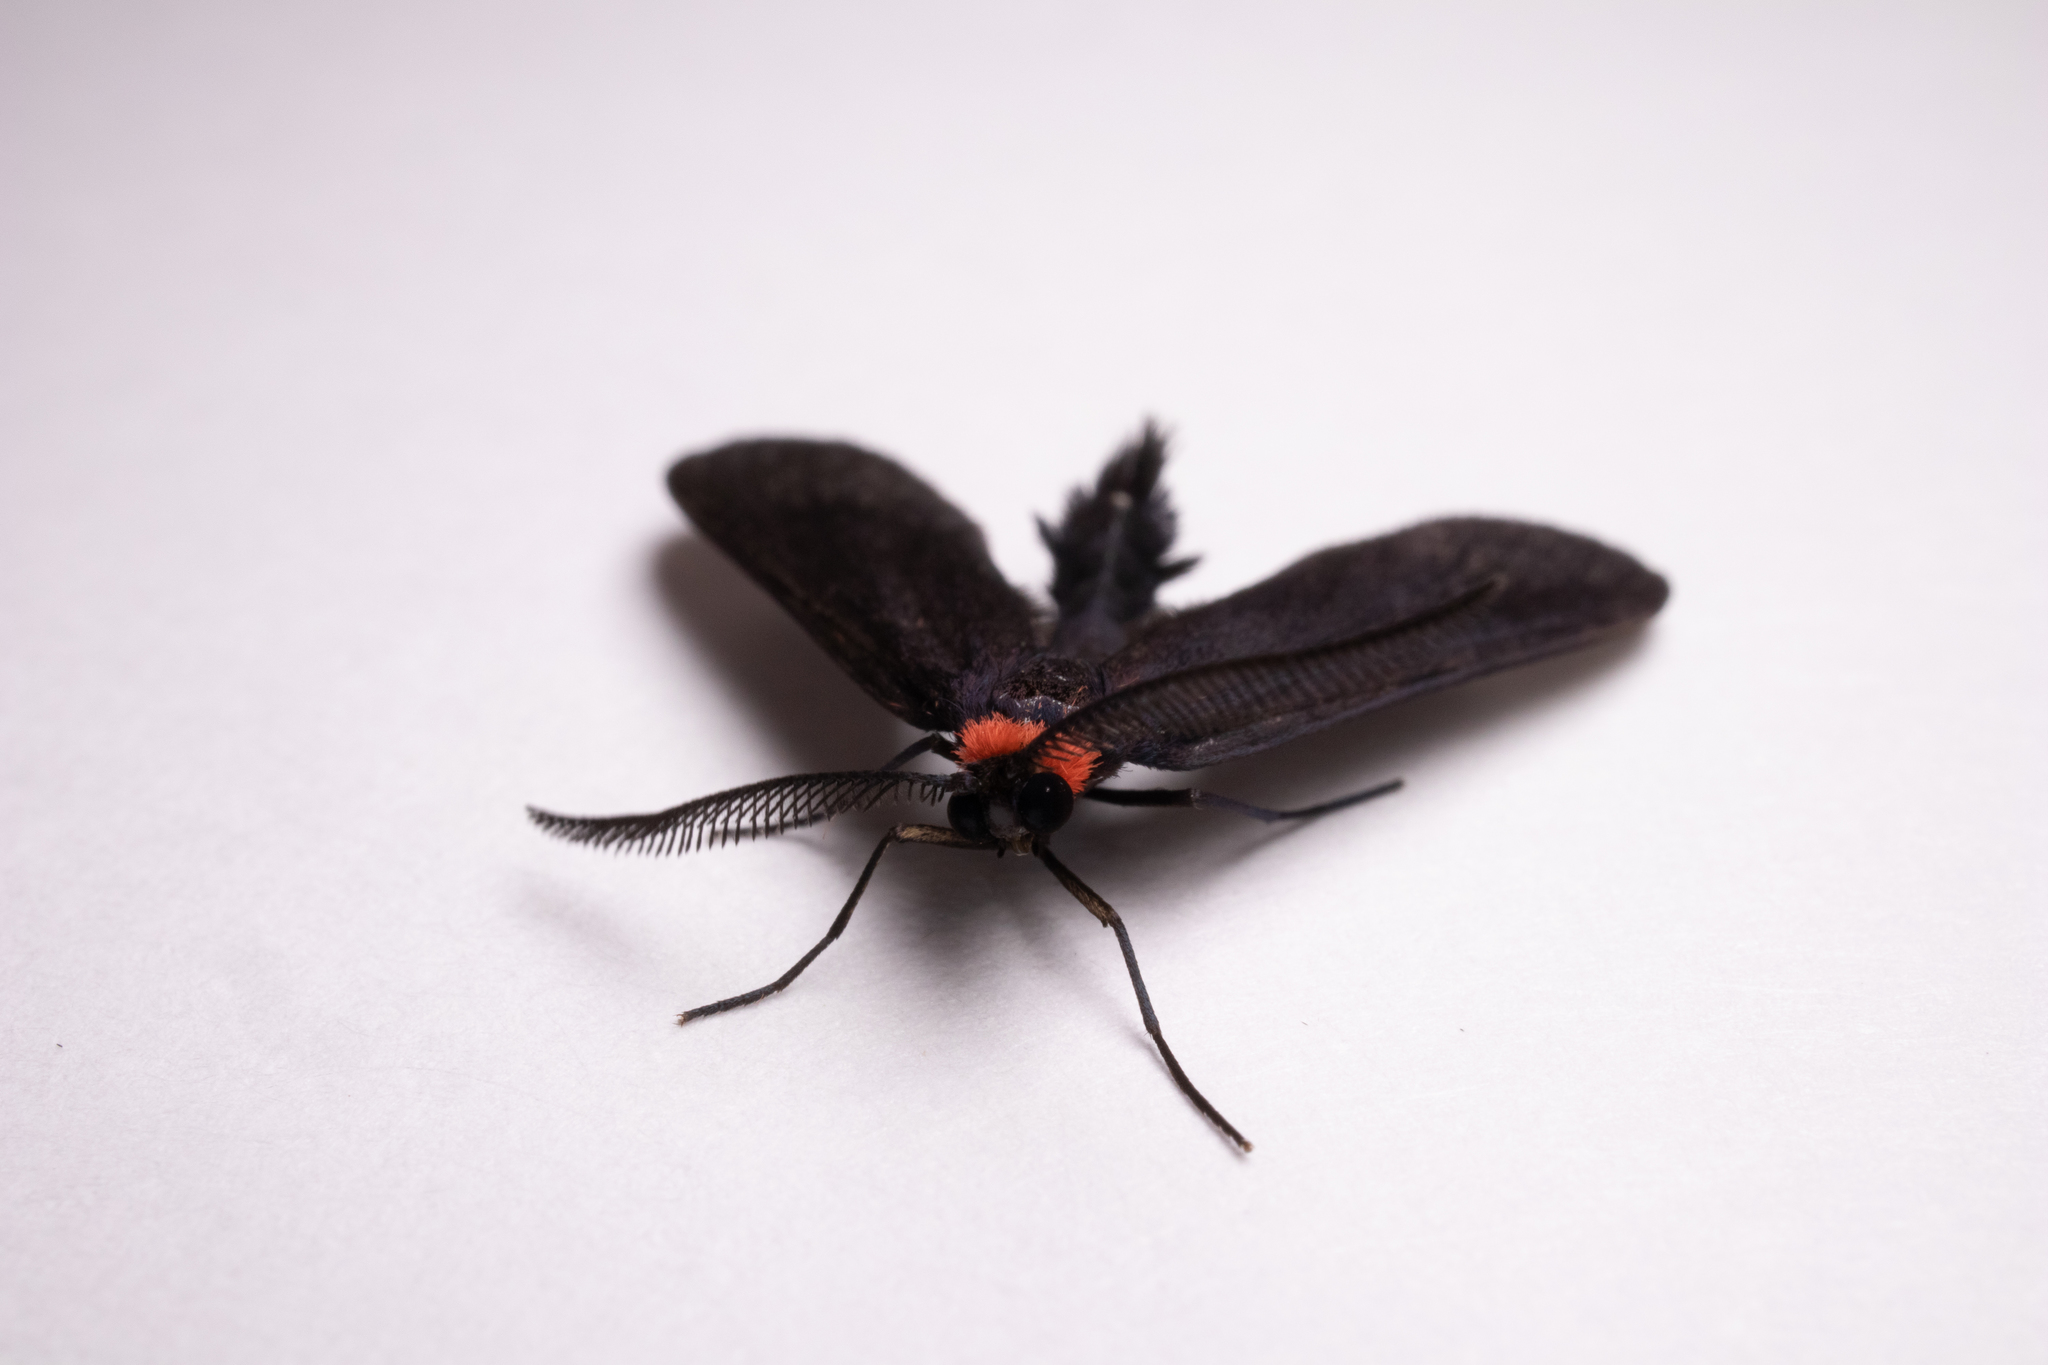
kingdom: Animalia
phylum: Arthropoda
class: Insecta
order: Lepidoptera
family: Zygaenidae
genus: Harrisina
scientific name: Harrisina americana
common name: Grapeleaf skeletonizer moth
